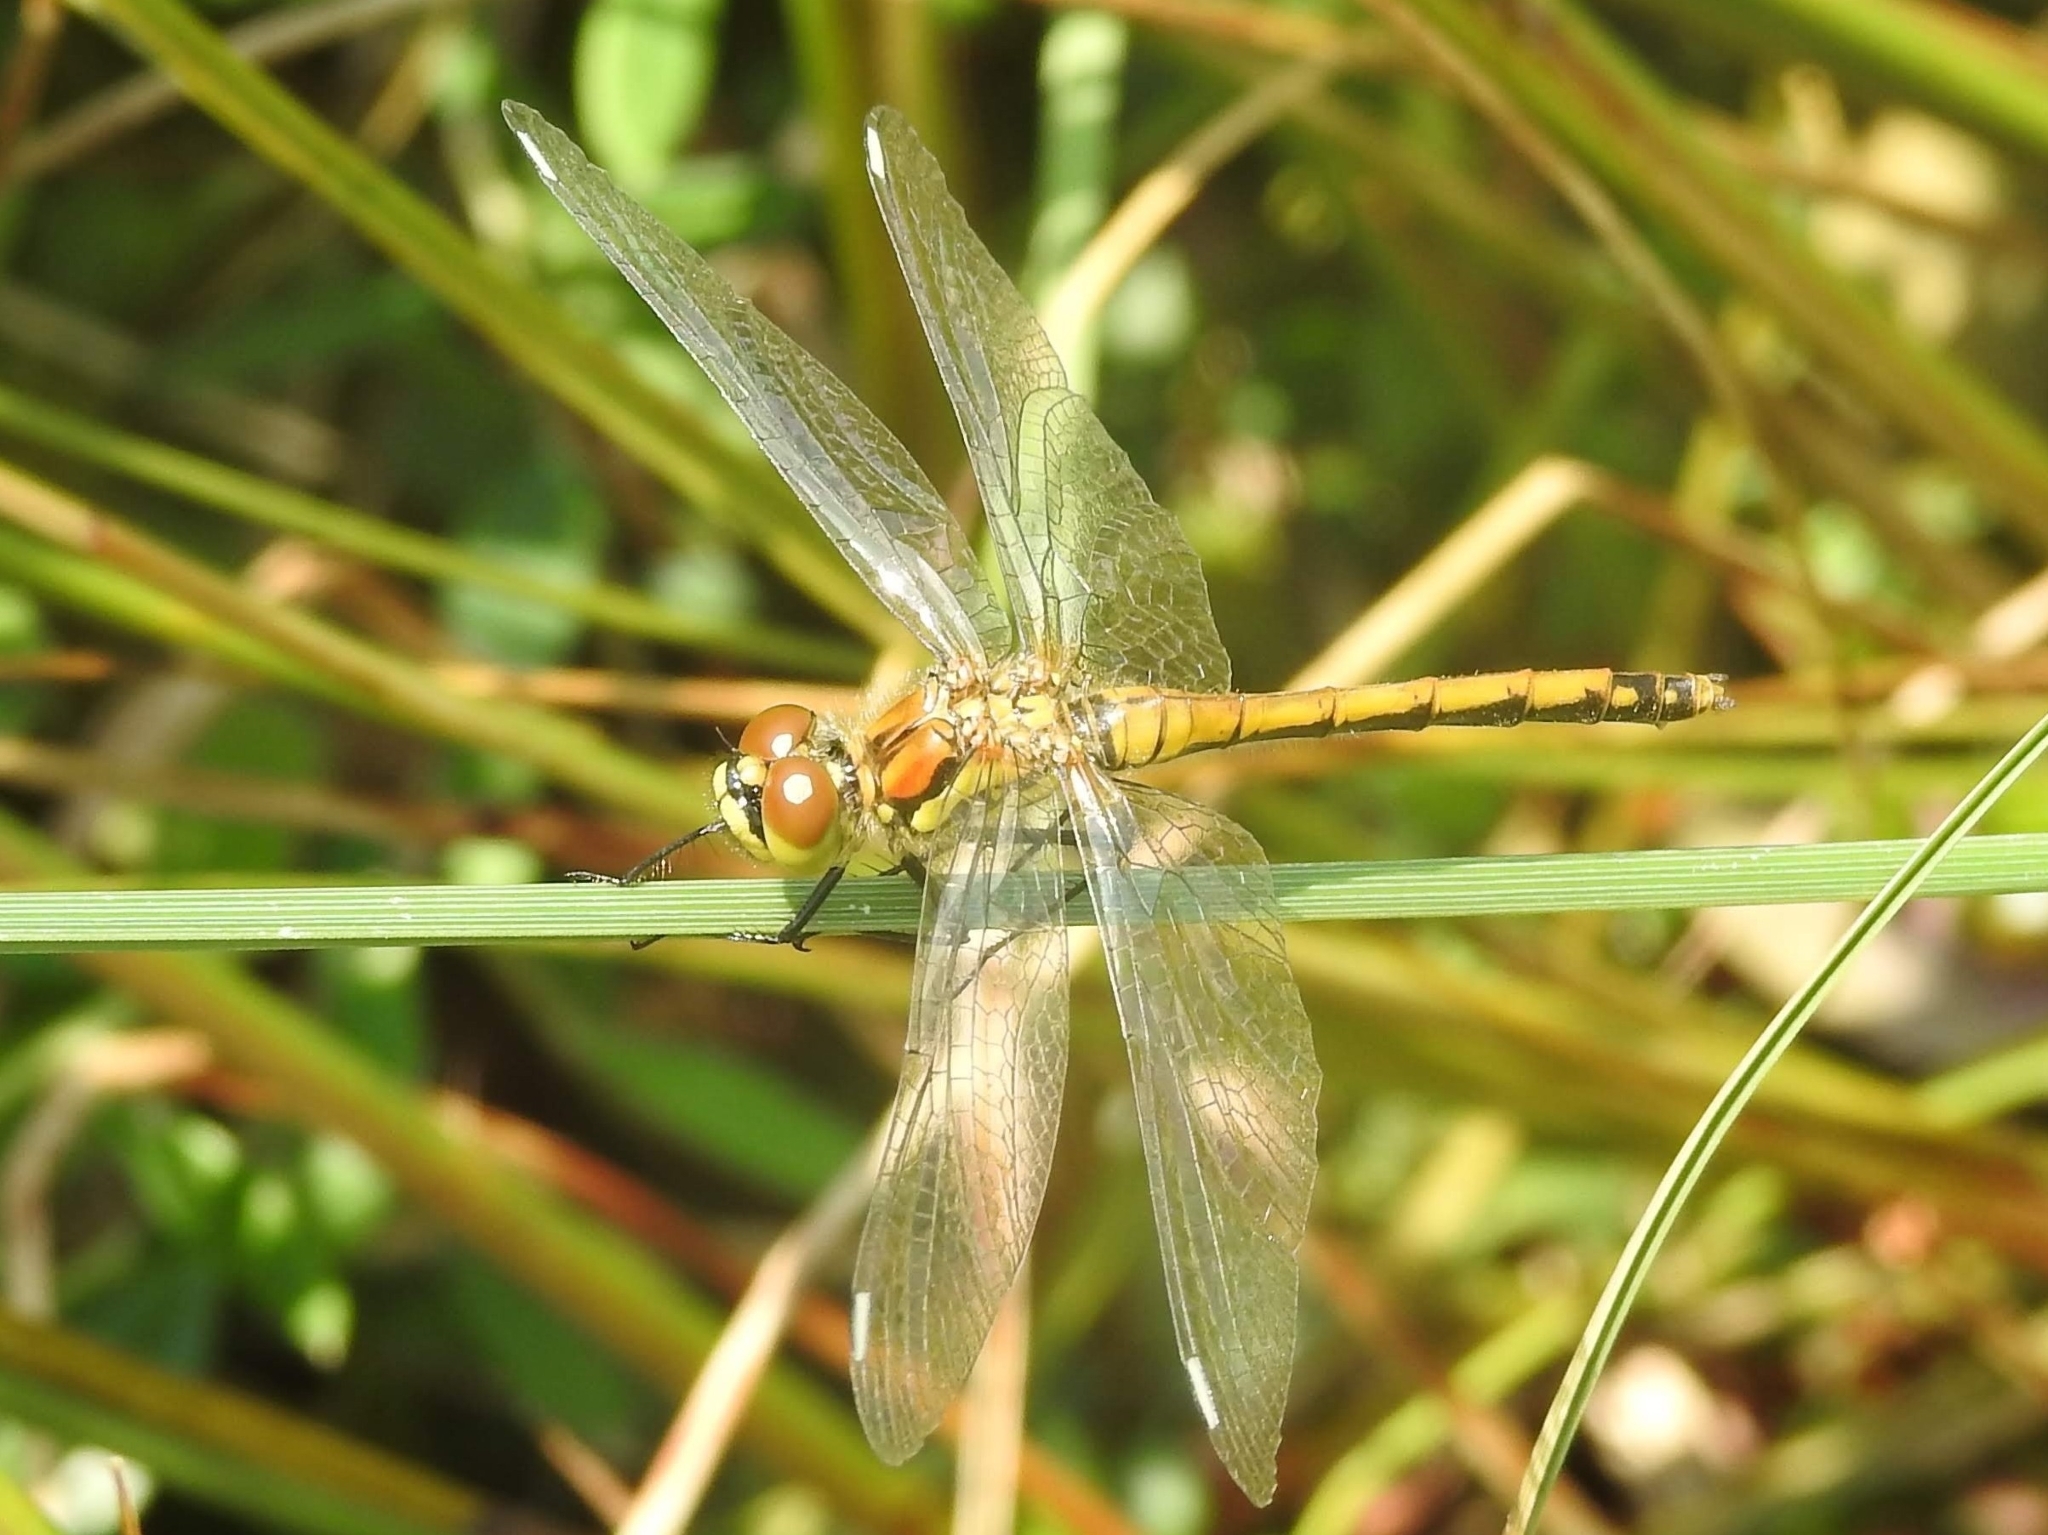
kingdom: Animalia
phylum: Arthropoda
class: Insecta
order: Odonata
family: Libellulidae
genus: Sympetrum
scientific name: Sympetrum danae
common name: Black darter
